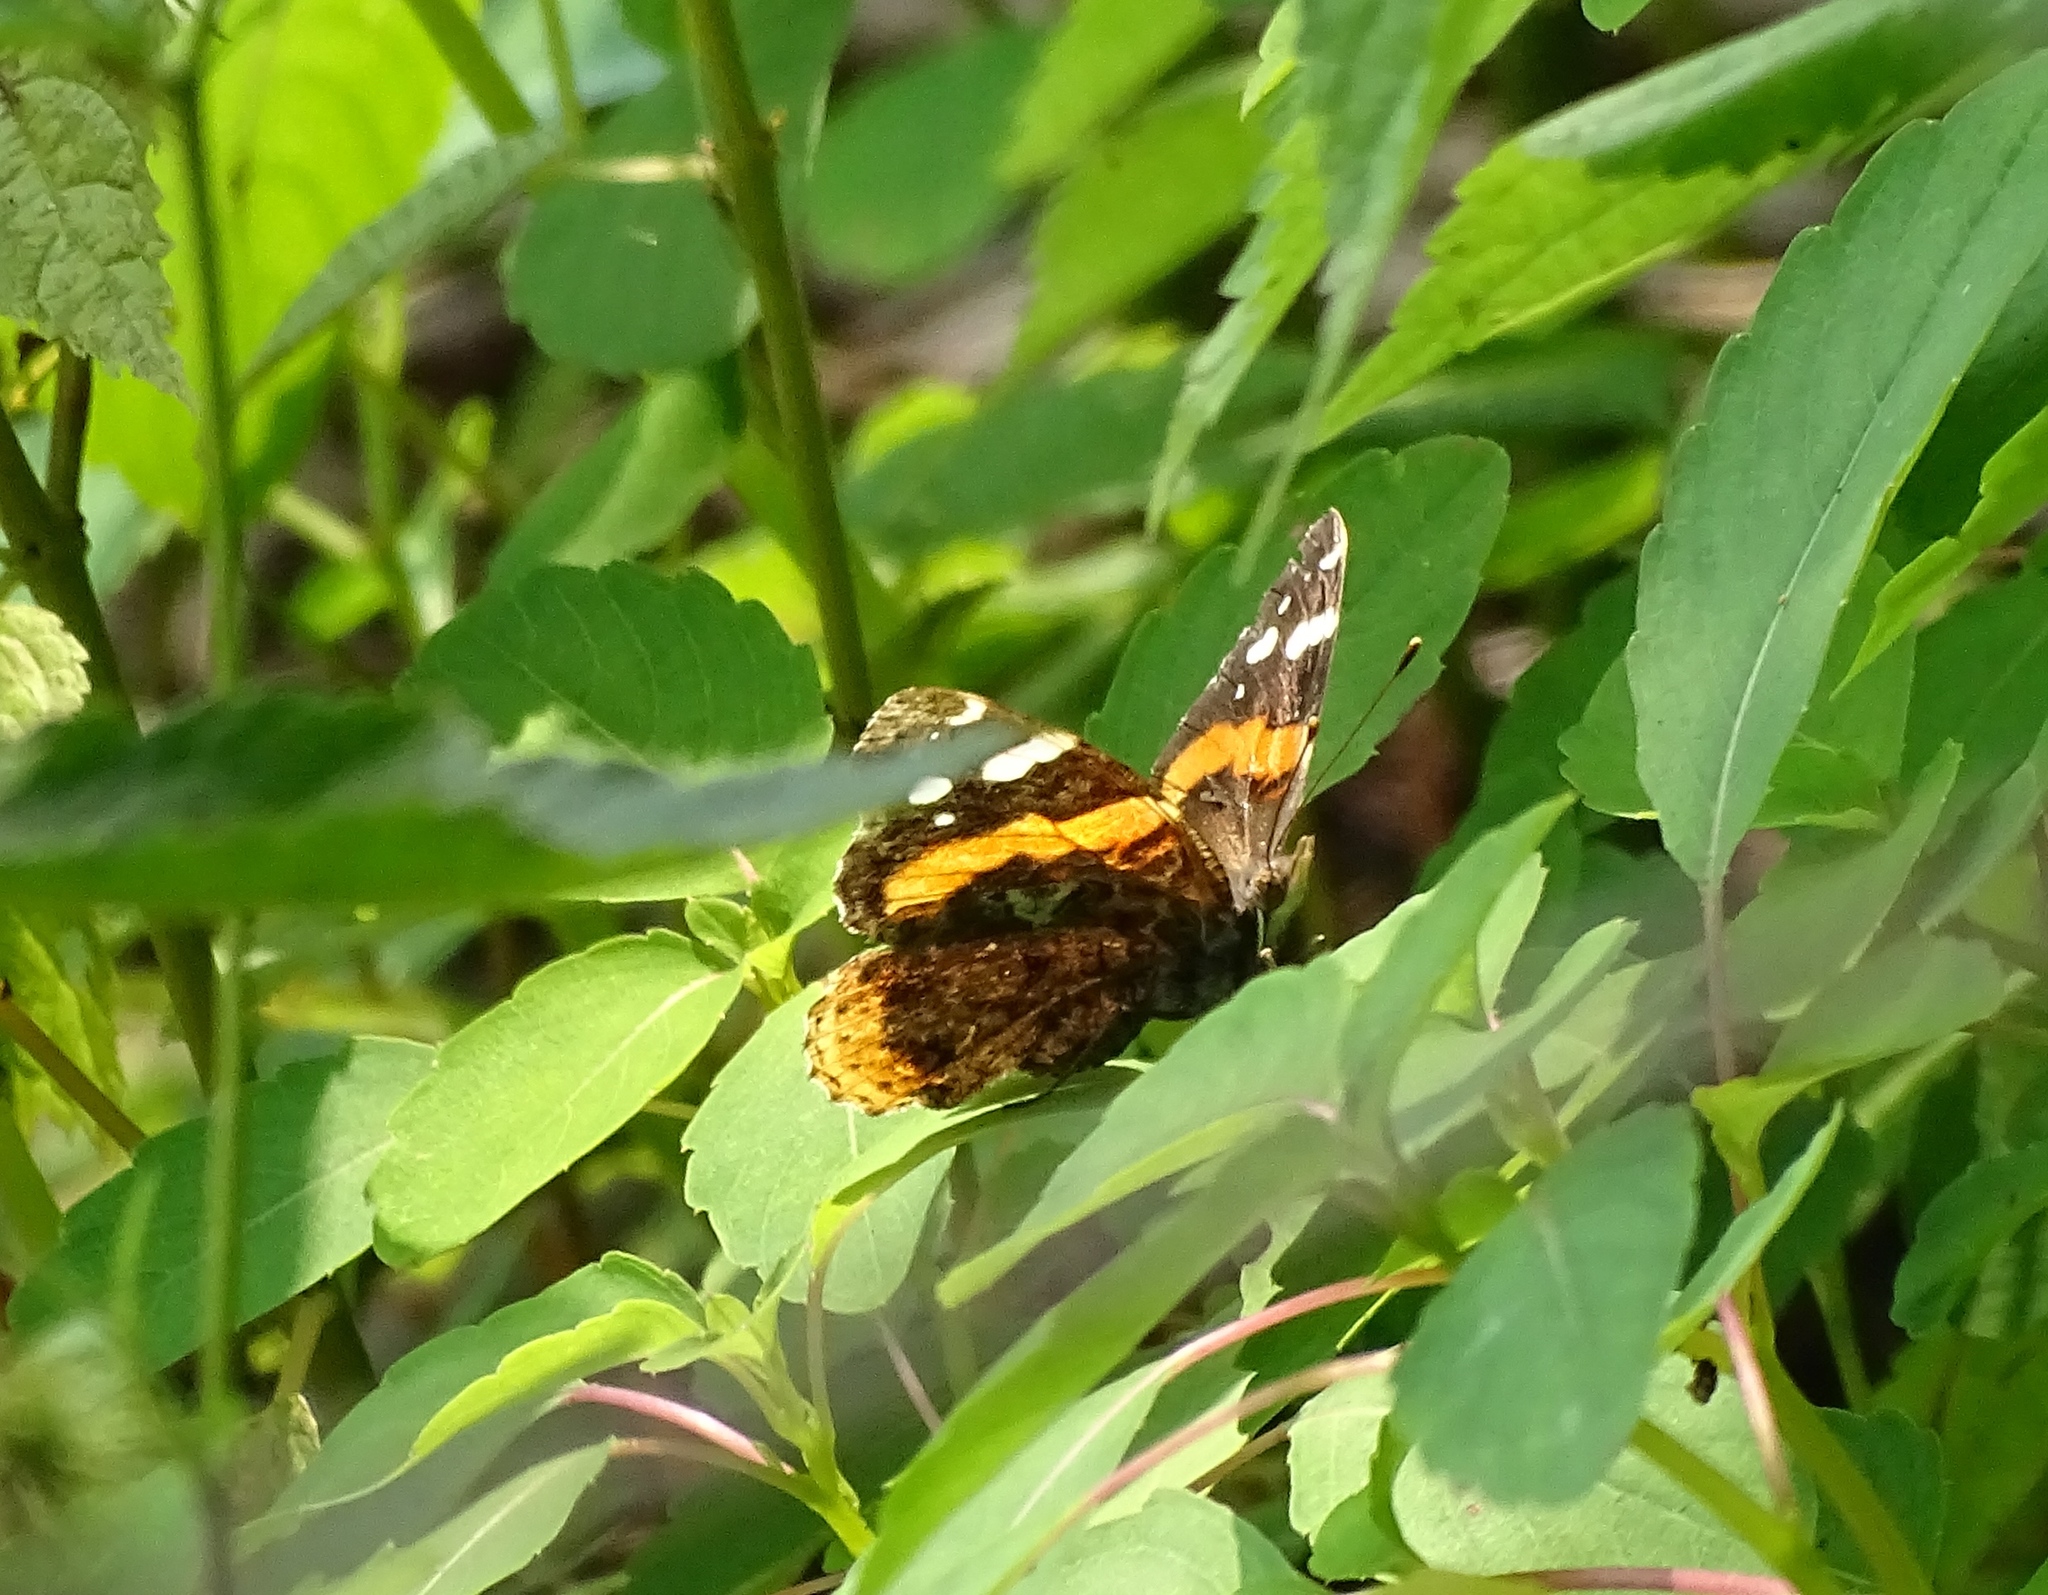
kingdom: Animalia
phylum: Arthropoda
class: Insecta
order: Lepidoptera
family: Nymphalidae
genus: Vanessa
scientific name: Vanessa atalanta
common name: Red admiral
